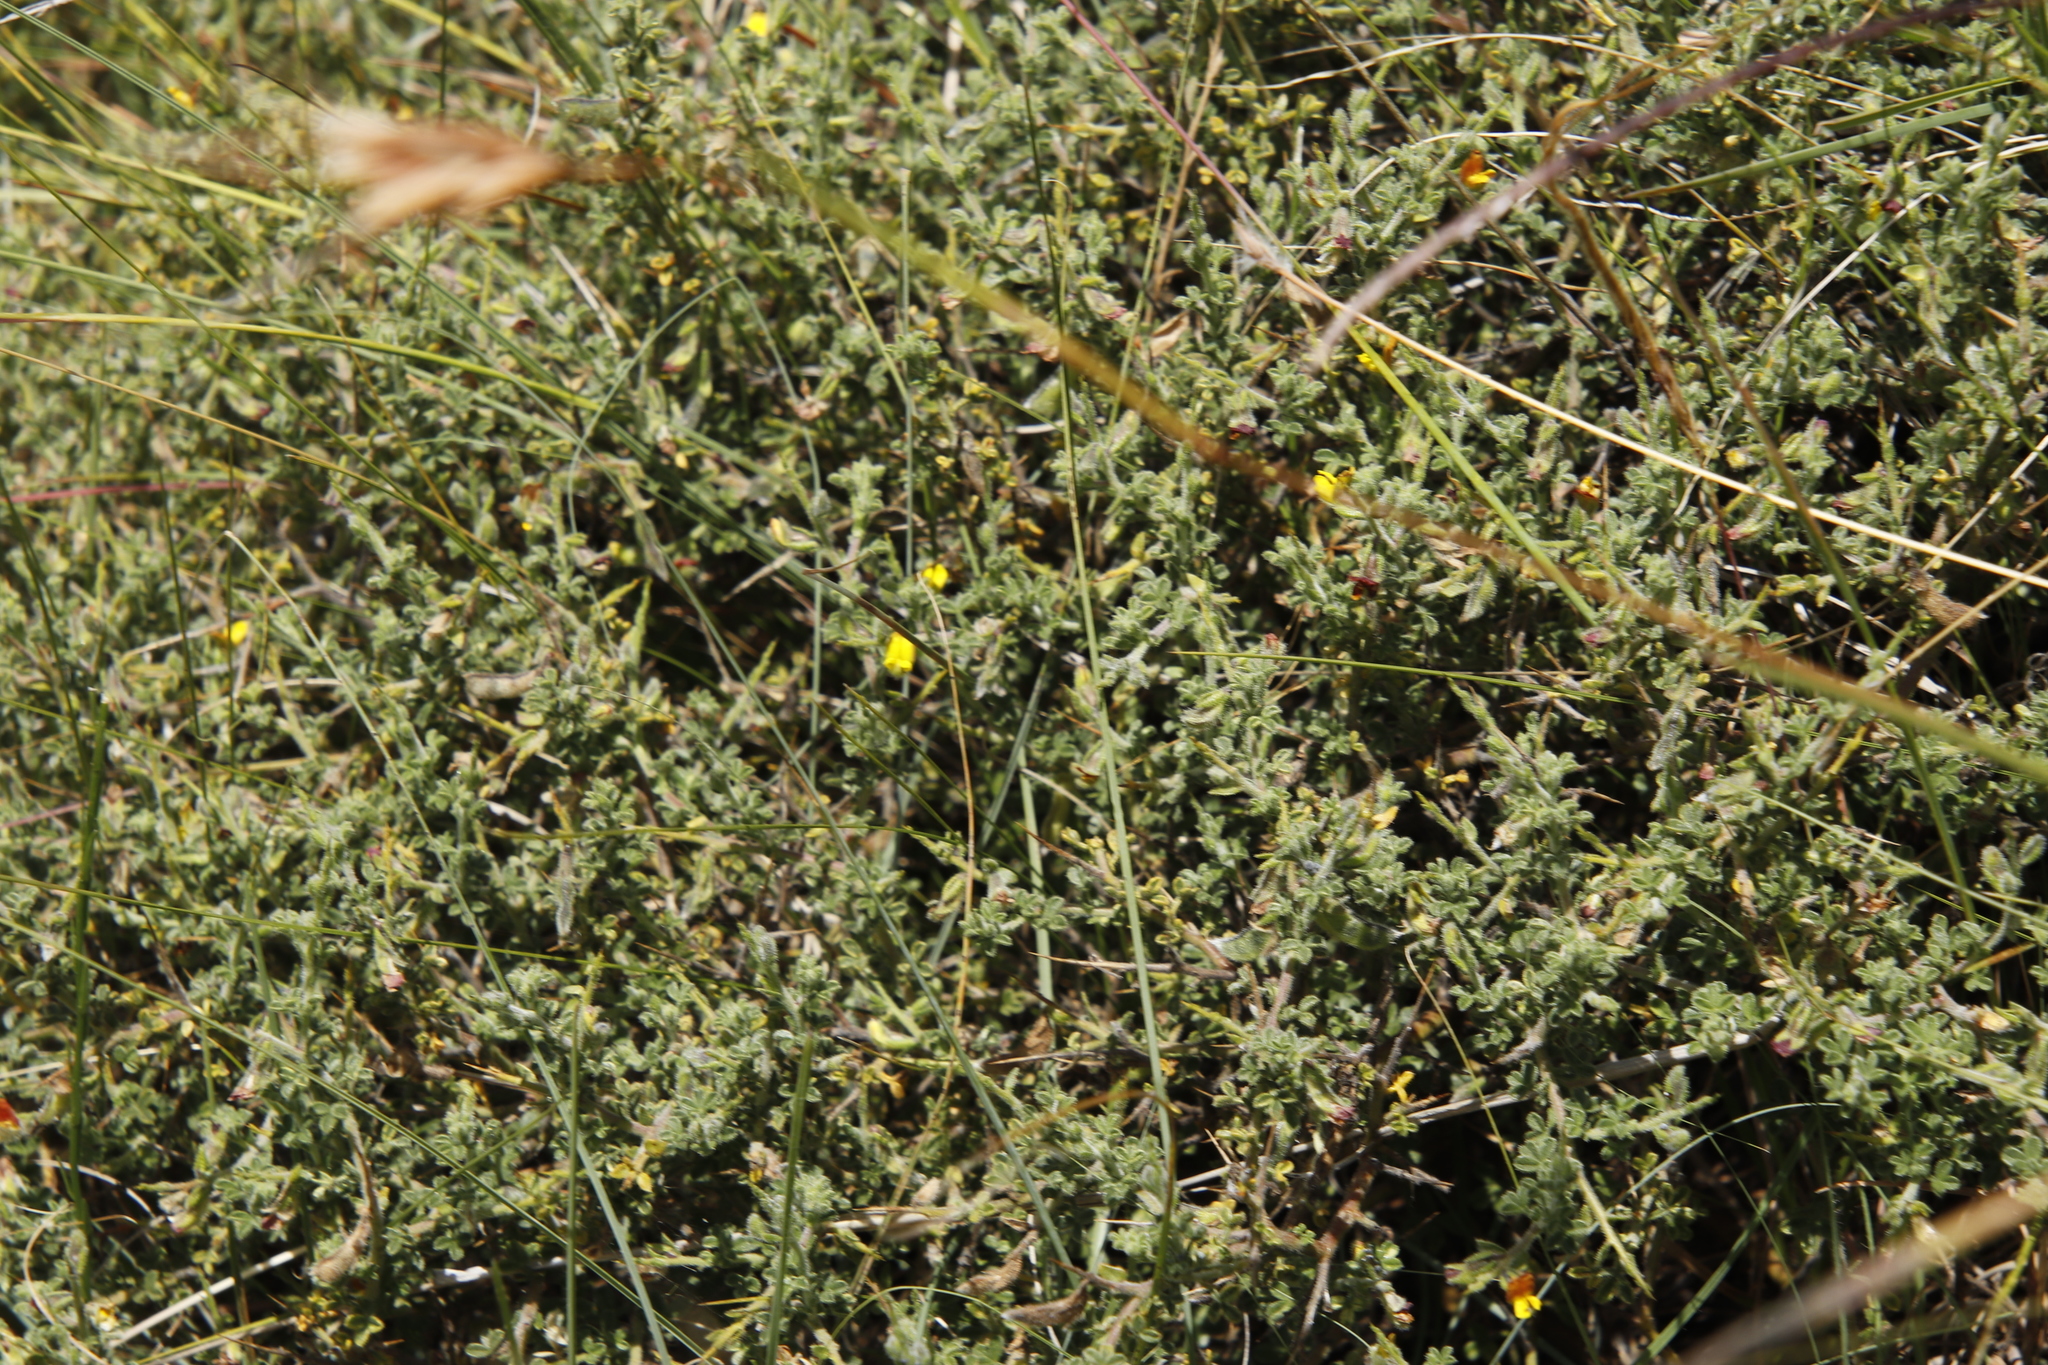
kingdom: Plantae
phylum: Tracheophyta
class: Magnoliopsida
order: Fabales
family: Fabaceae
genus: Melolobium
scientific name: Melolobium microphyllum
